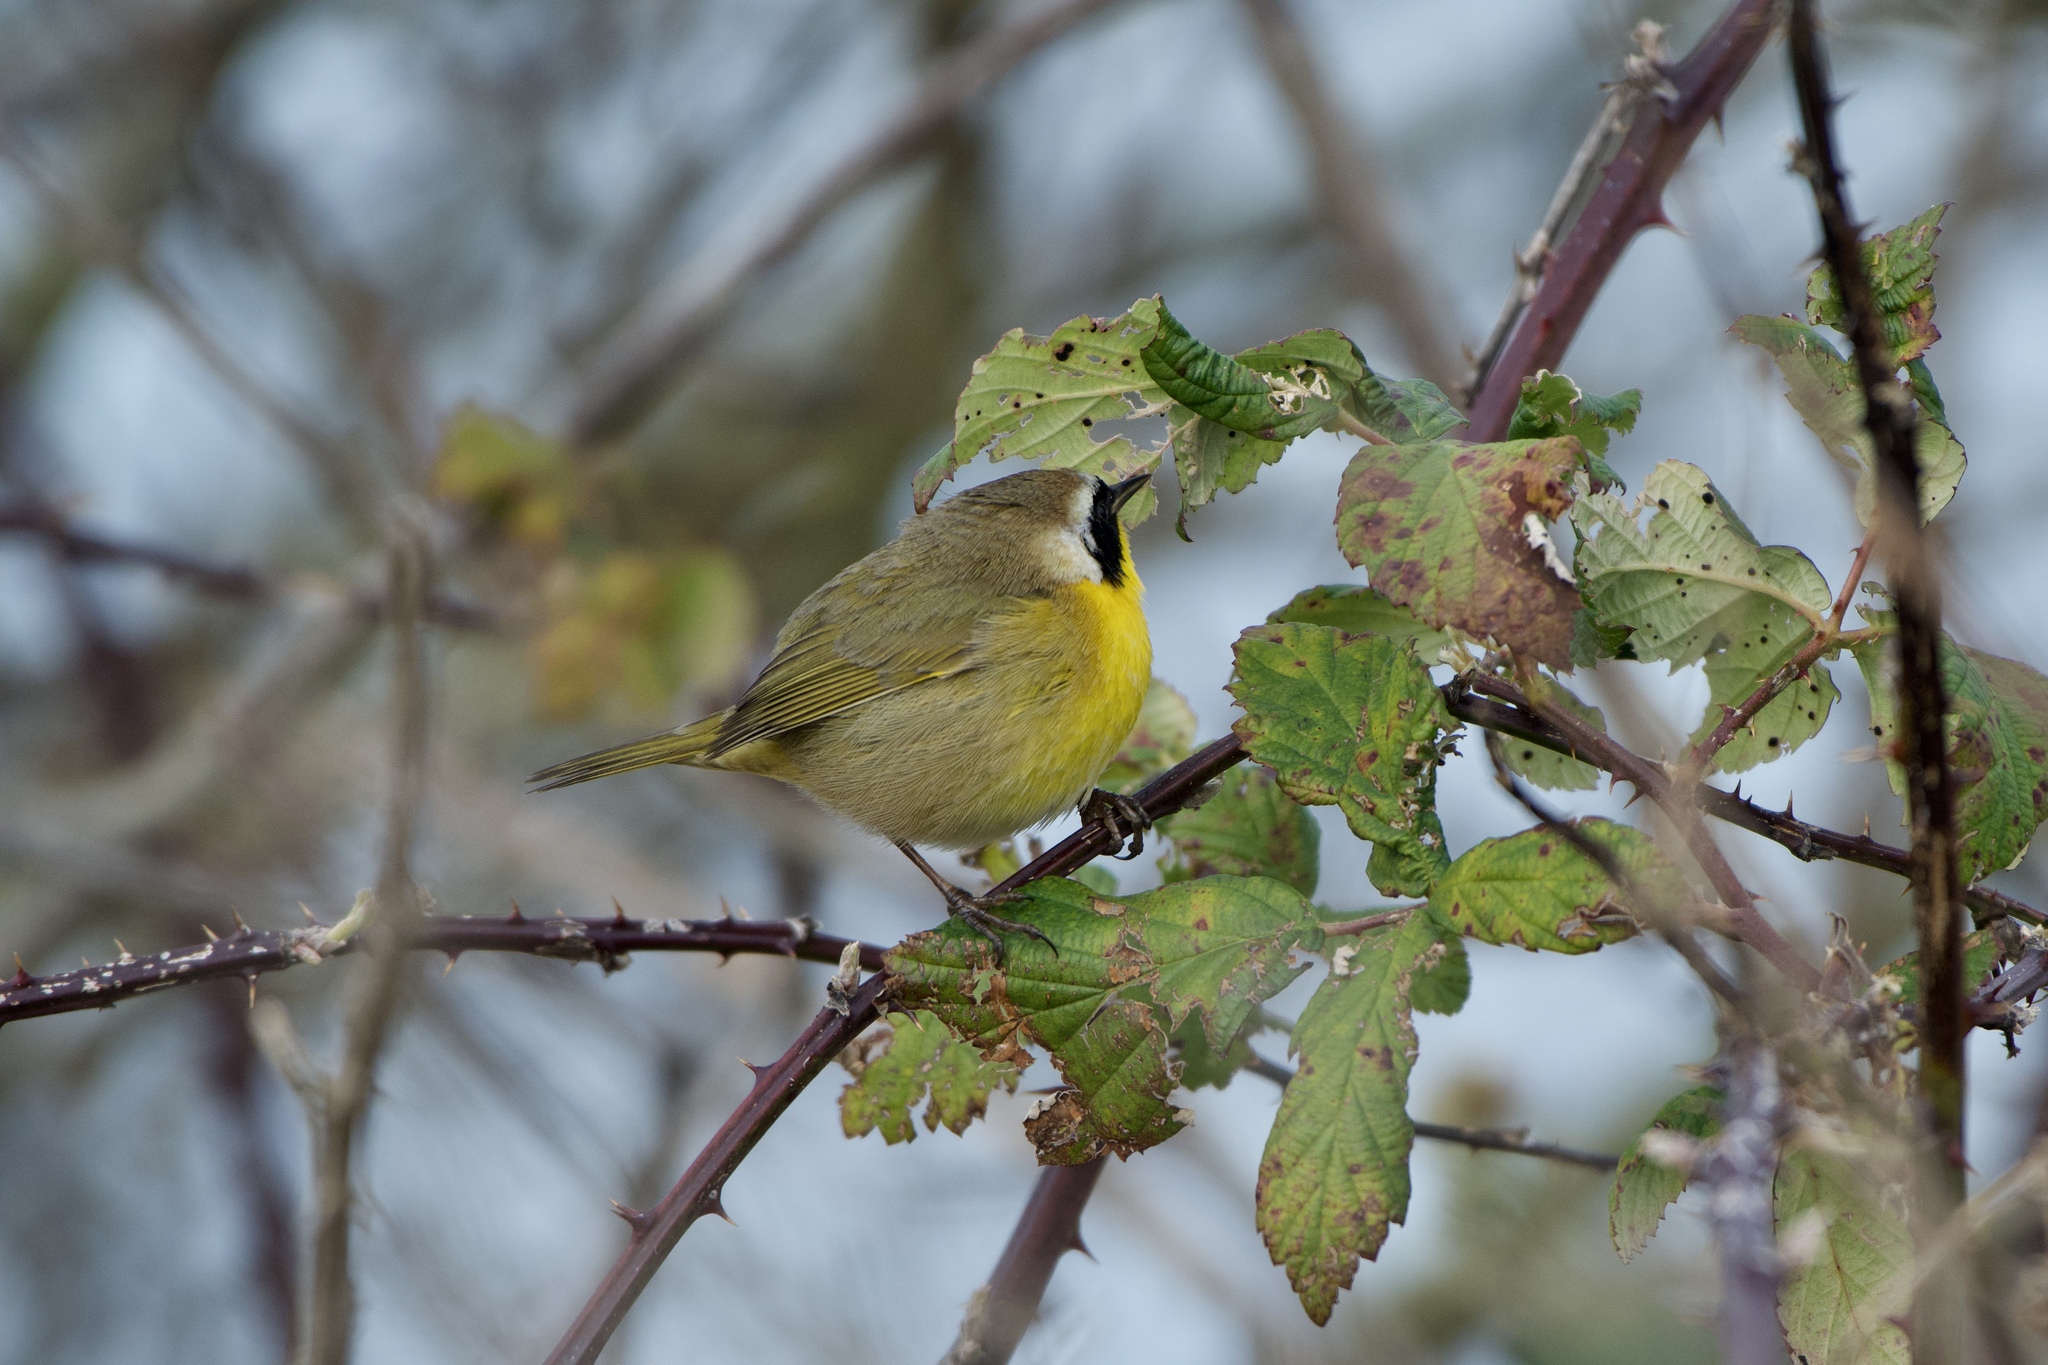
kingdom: Animalia
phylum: Chordata
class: Aves
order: Passeriformes
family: Parulidae
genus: Geothlypis
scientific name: Geothlypis trichas
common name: Common yellowthroat
